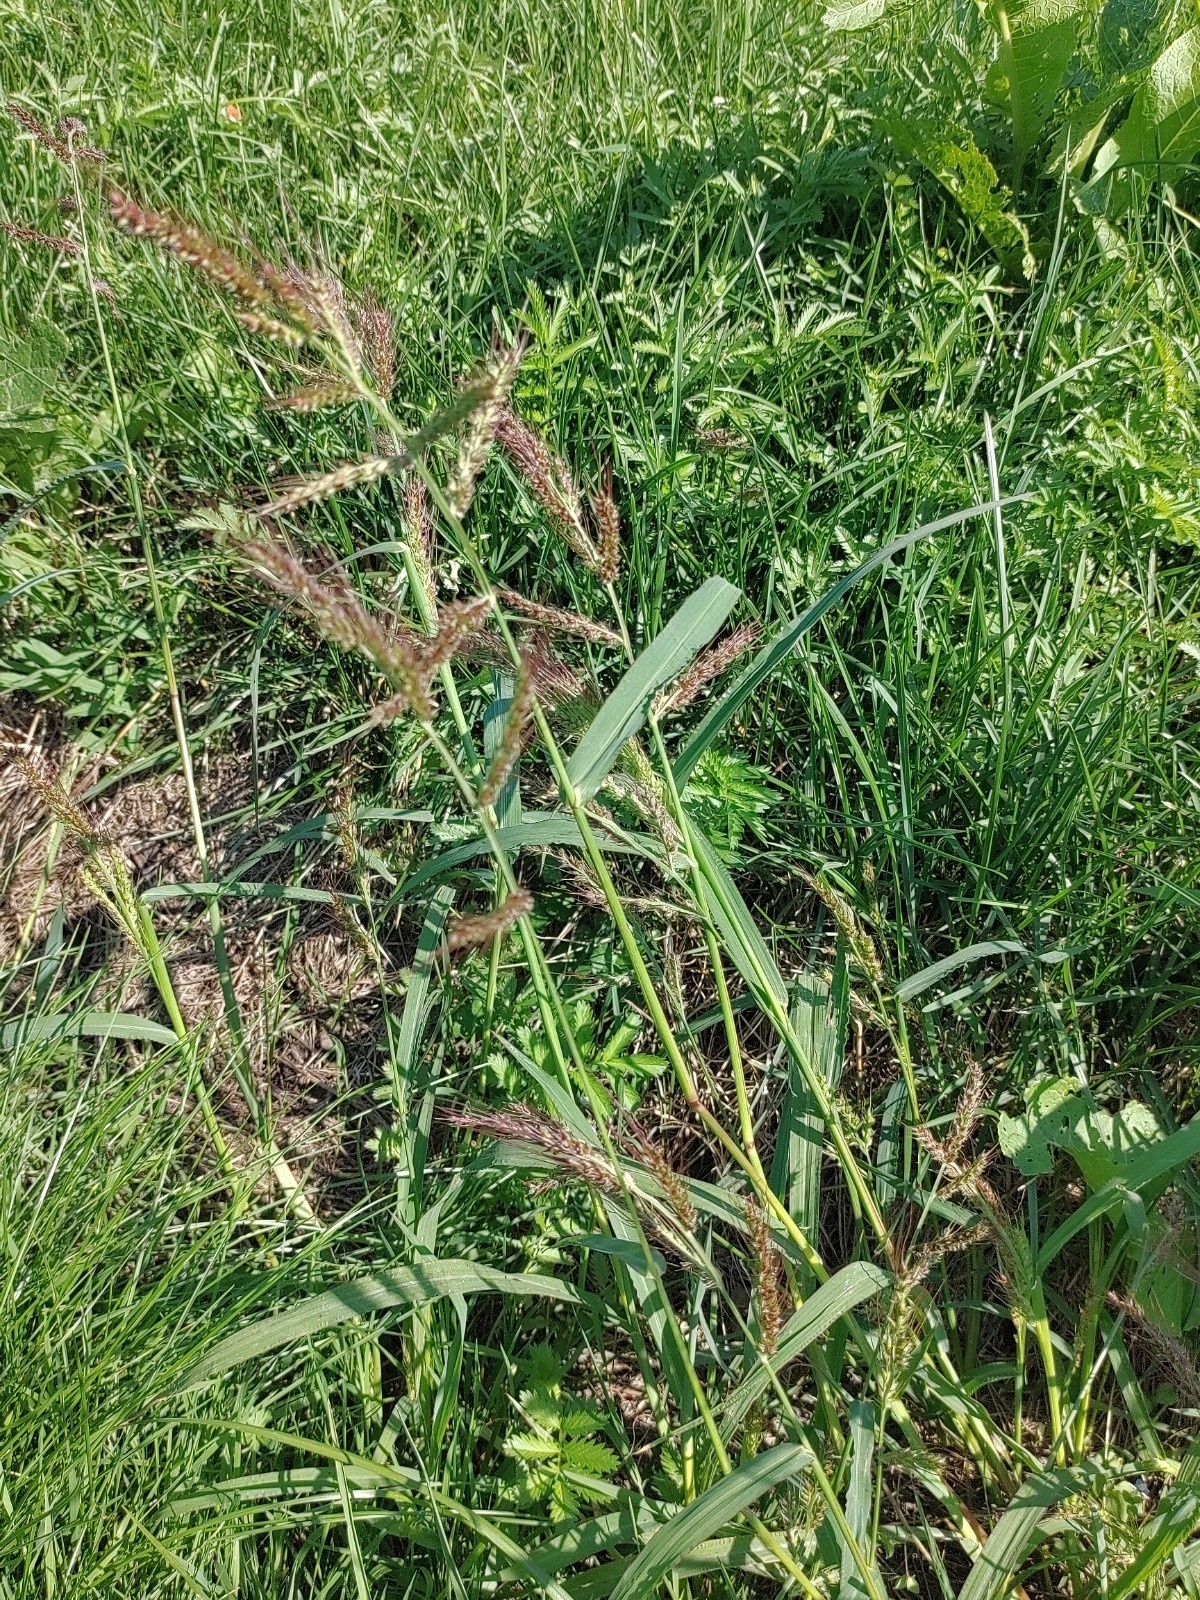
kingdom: Plantae
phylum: Tracheophyta
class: Liliopsida
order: Poales
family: Poaceae
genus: Echinochloa
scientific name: Echinochloa crus-galli
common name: Cockspur
